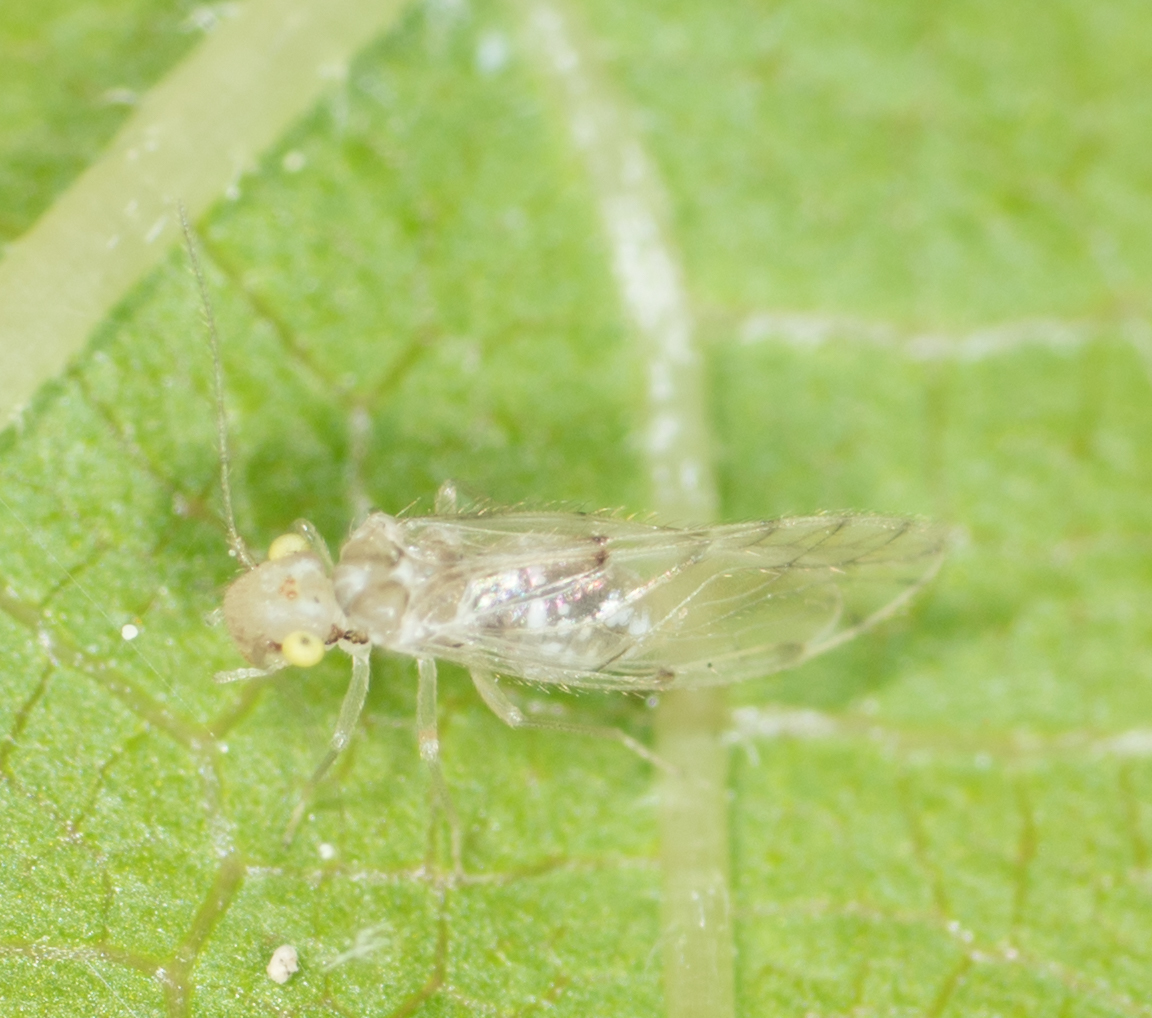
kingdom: Animalia
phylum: Arthropoda
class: Insecta
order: Psocodea
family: Trichopsocidae
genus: Trichopsocus
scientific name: Trichopsocus clarus
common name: Lash-faced psocid
